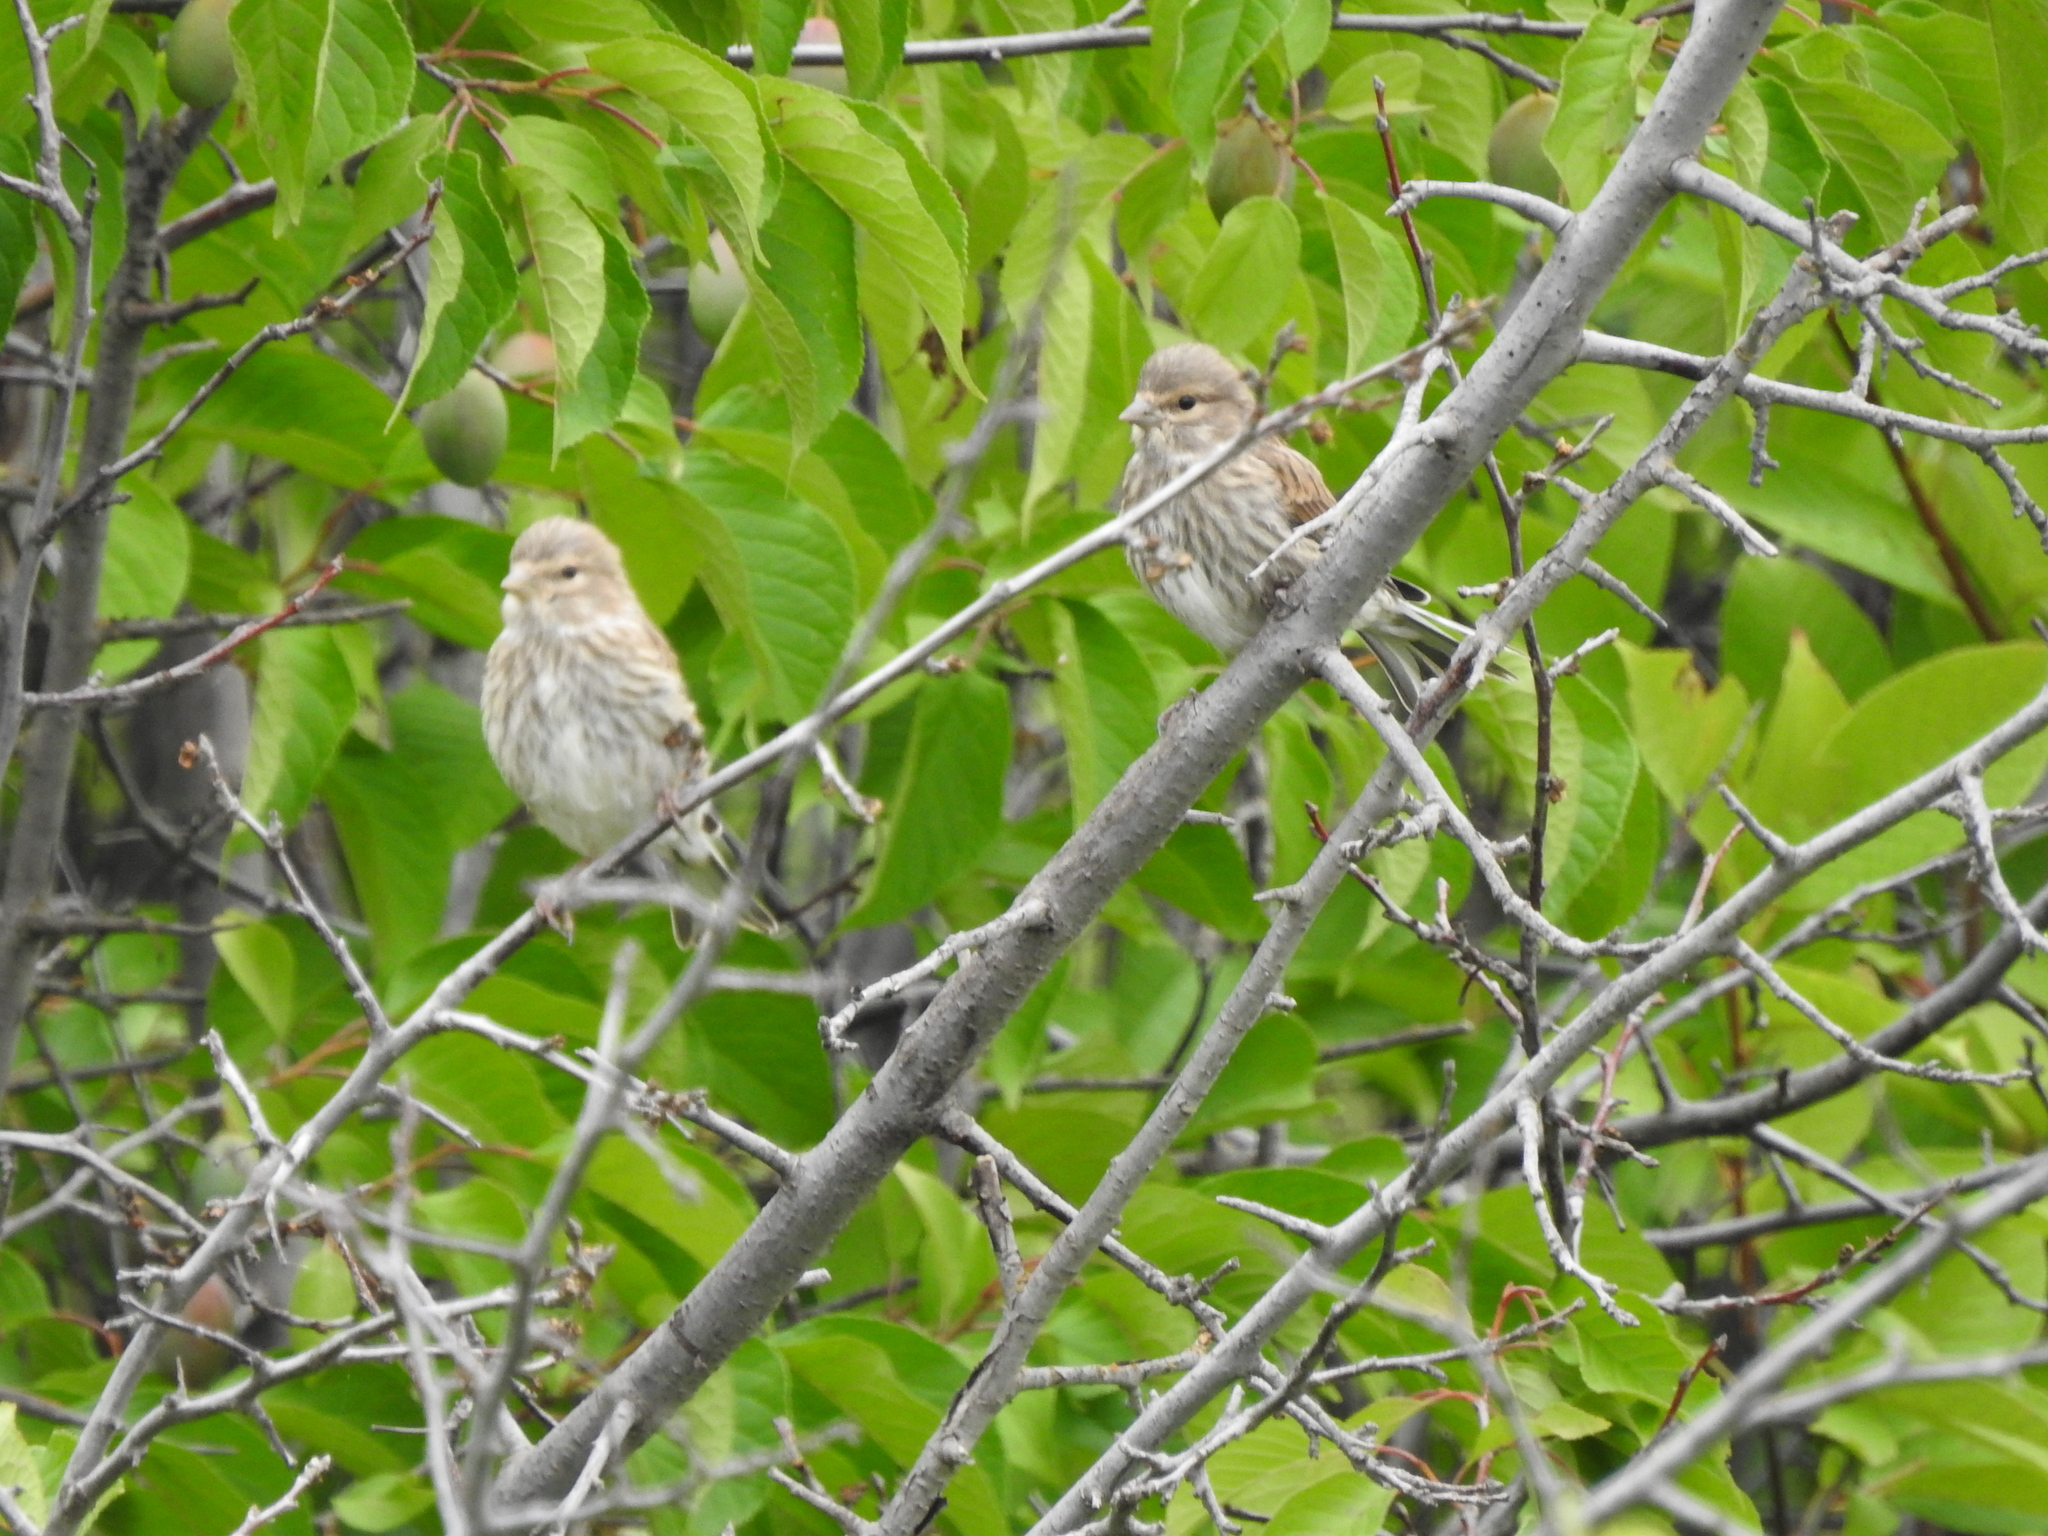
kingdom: Animalia
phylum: Chordata
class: Aves
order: Passeriformes
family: Fringillidae
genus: Linaria
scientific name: Linaria cannabina
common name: Common linnet
